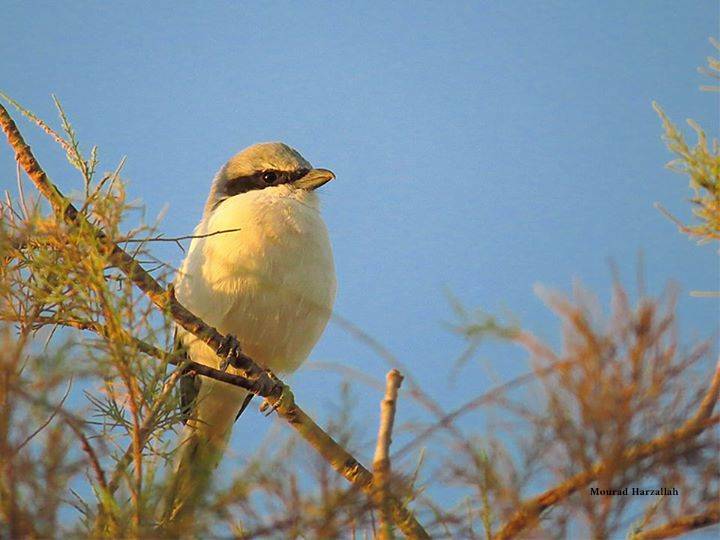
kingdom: Animalia
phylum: Chordata
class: Aves
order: Passeriformes
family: Laniidae
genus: Lanius
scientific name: Lanius excubitor
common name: Great grey shrike
